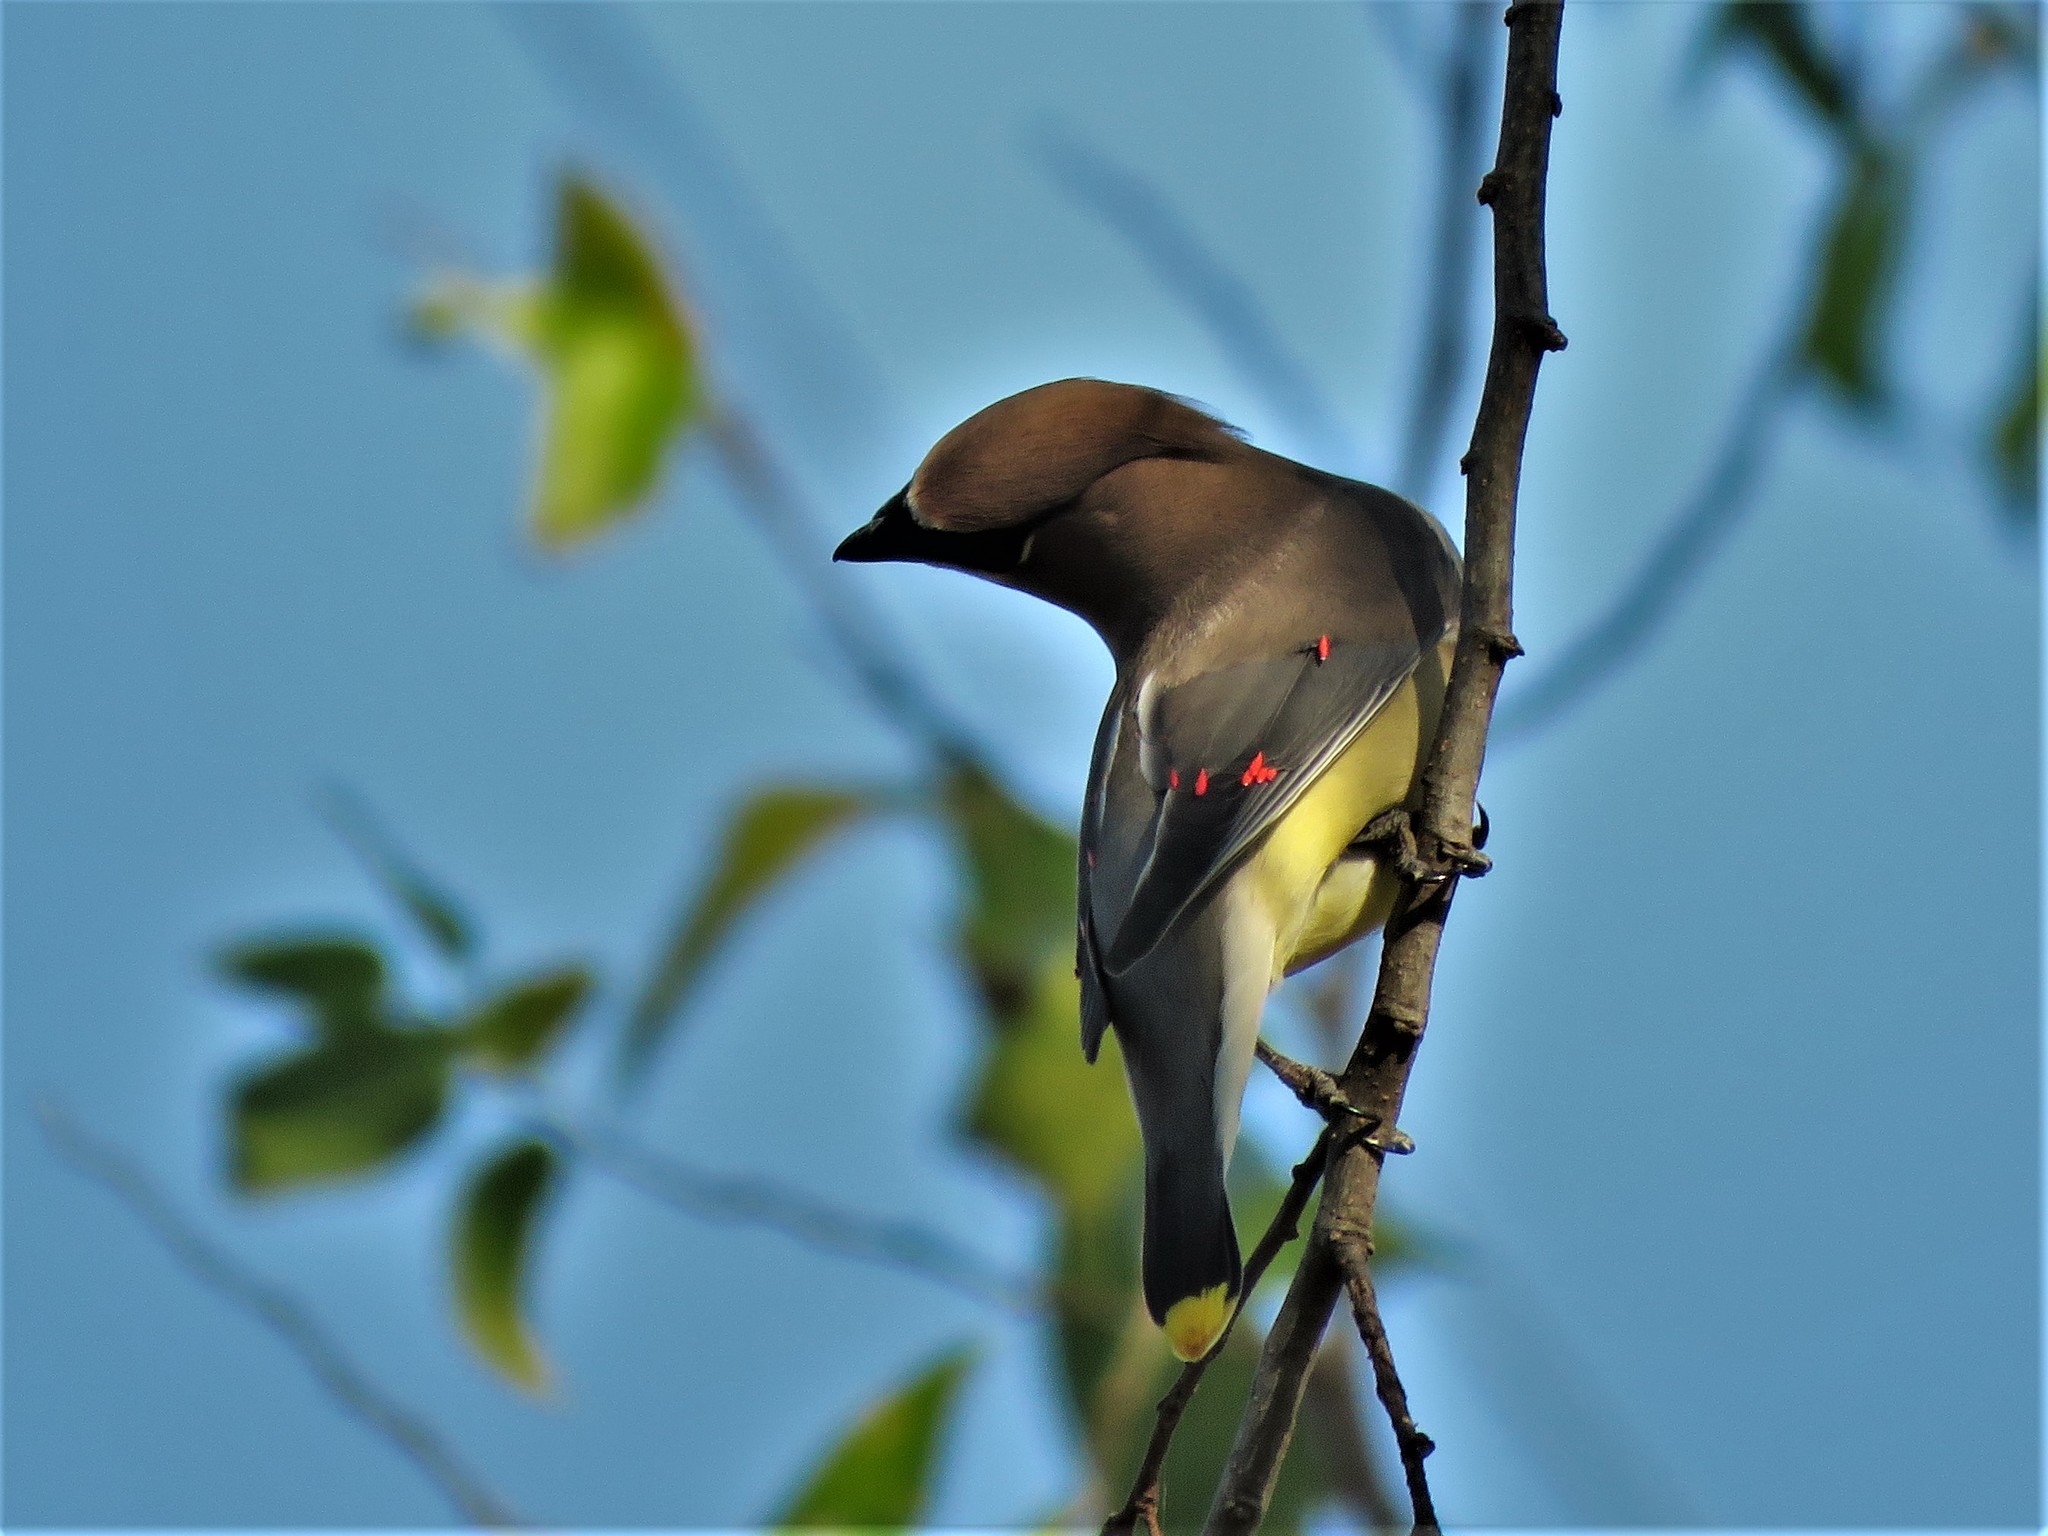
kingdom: Animalia
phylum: Chordata
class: Aves
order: Passeriformes
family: Bombycillidae
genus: Bombycilla
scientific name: Bombycilla cedrorum
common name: Cedar waxwing
